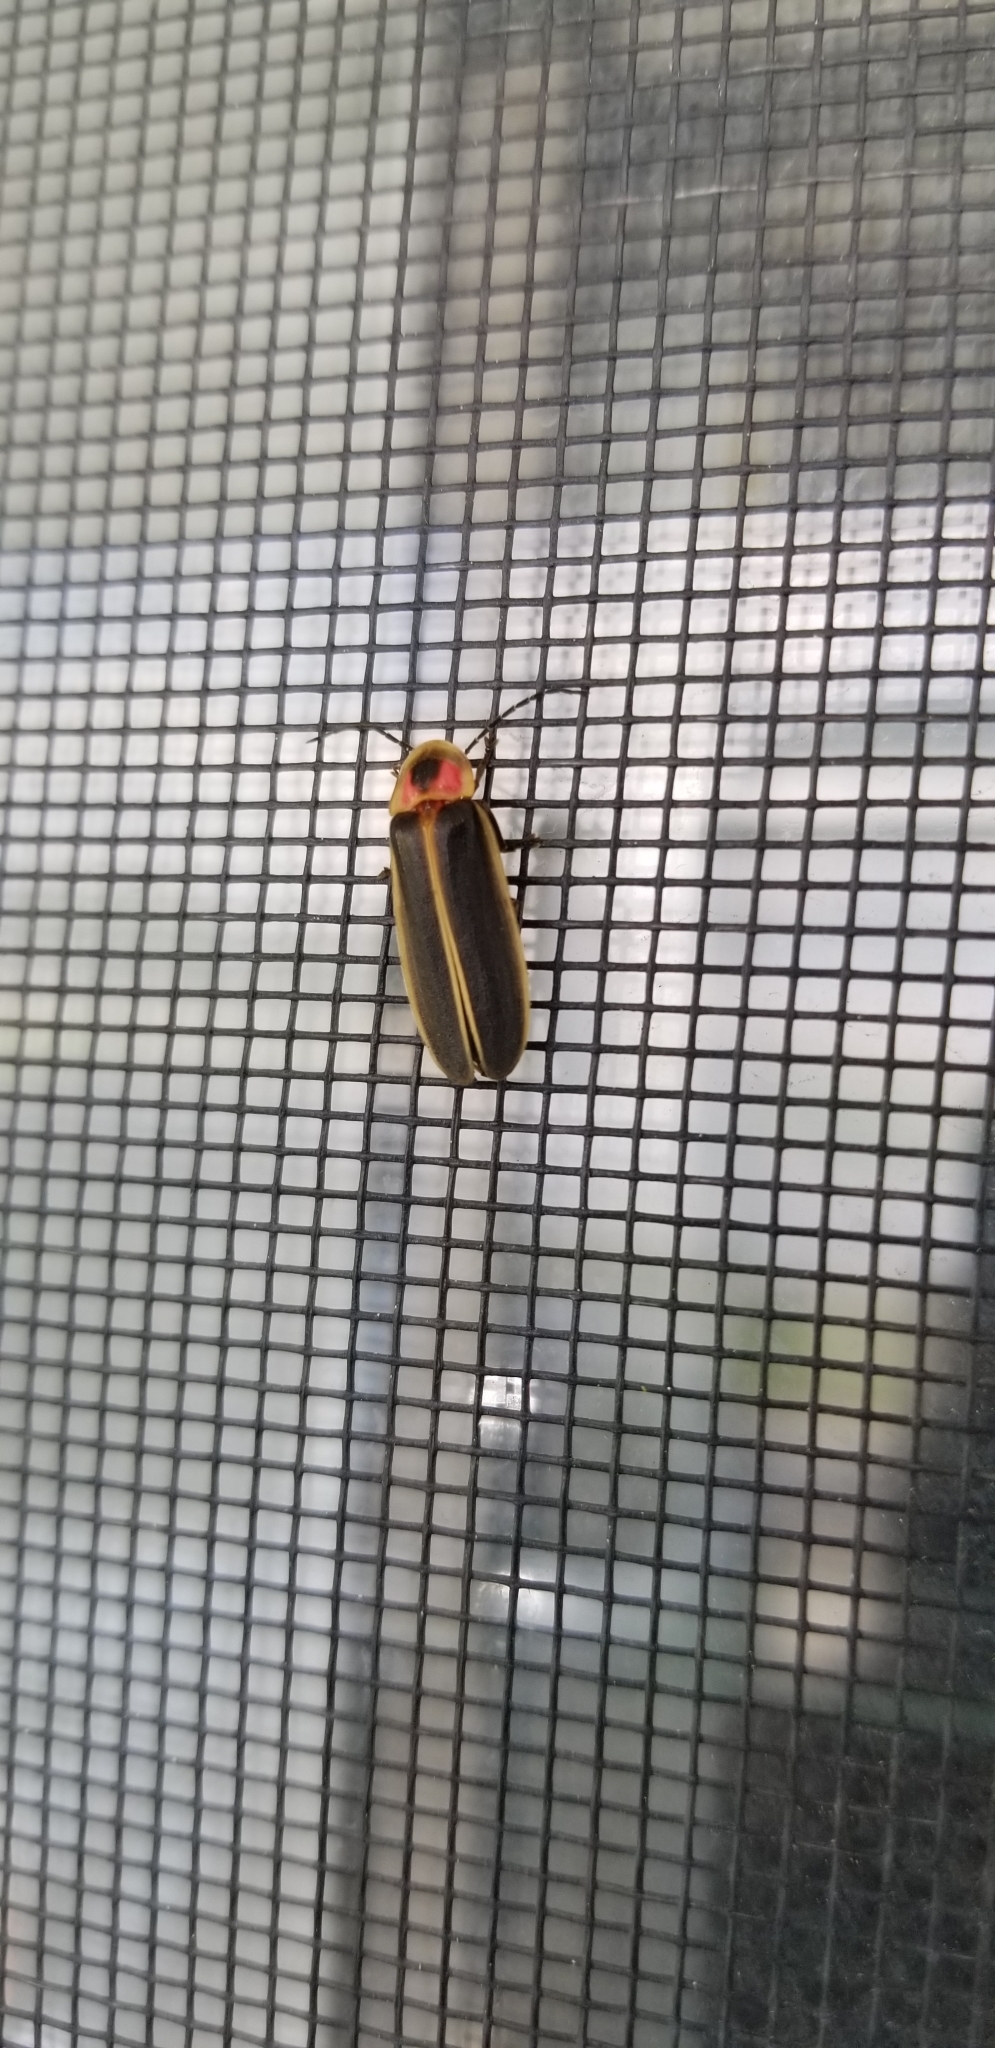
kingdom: Animalia
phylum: Arthropoda
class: Insecta
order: Coleoptera
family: Lampyridae
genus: Photinus
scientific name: Photinus pyralis
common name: Big dipper firefly
